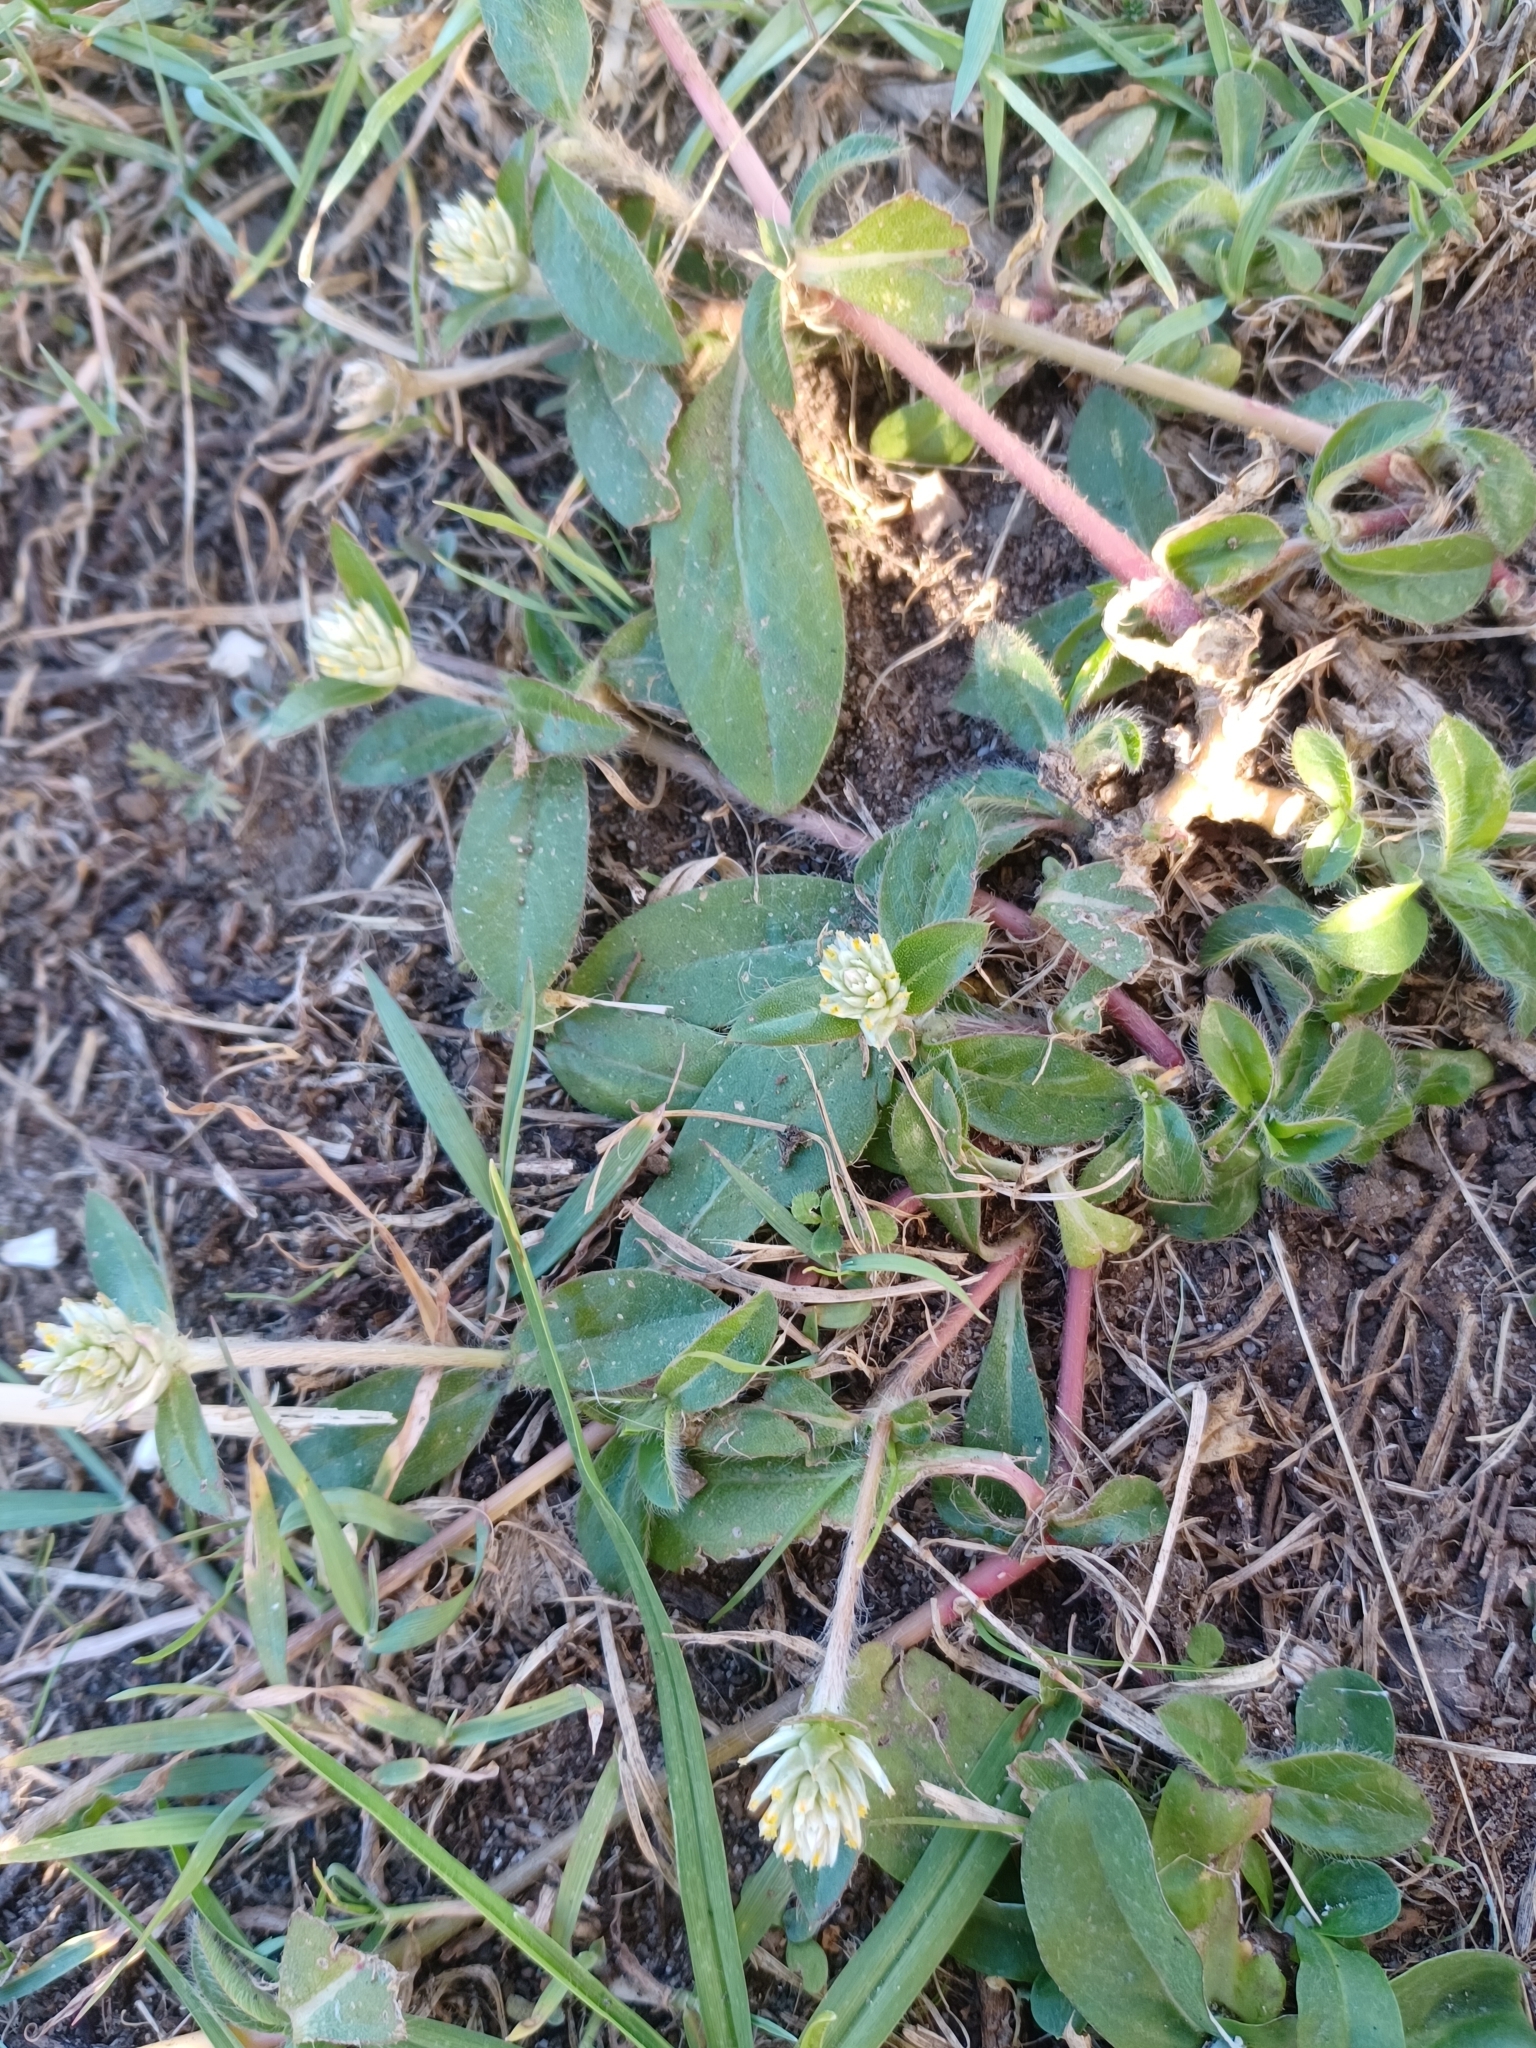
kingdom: Plantae
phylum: Tracheophyta
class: Magnoliopsida
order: Caryophyllales
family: Amaranthaceae
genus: Gomphrena
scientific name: Gomphrena celosioides
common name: Gomphrena-weed
